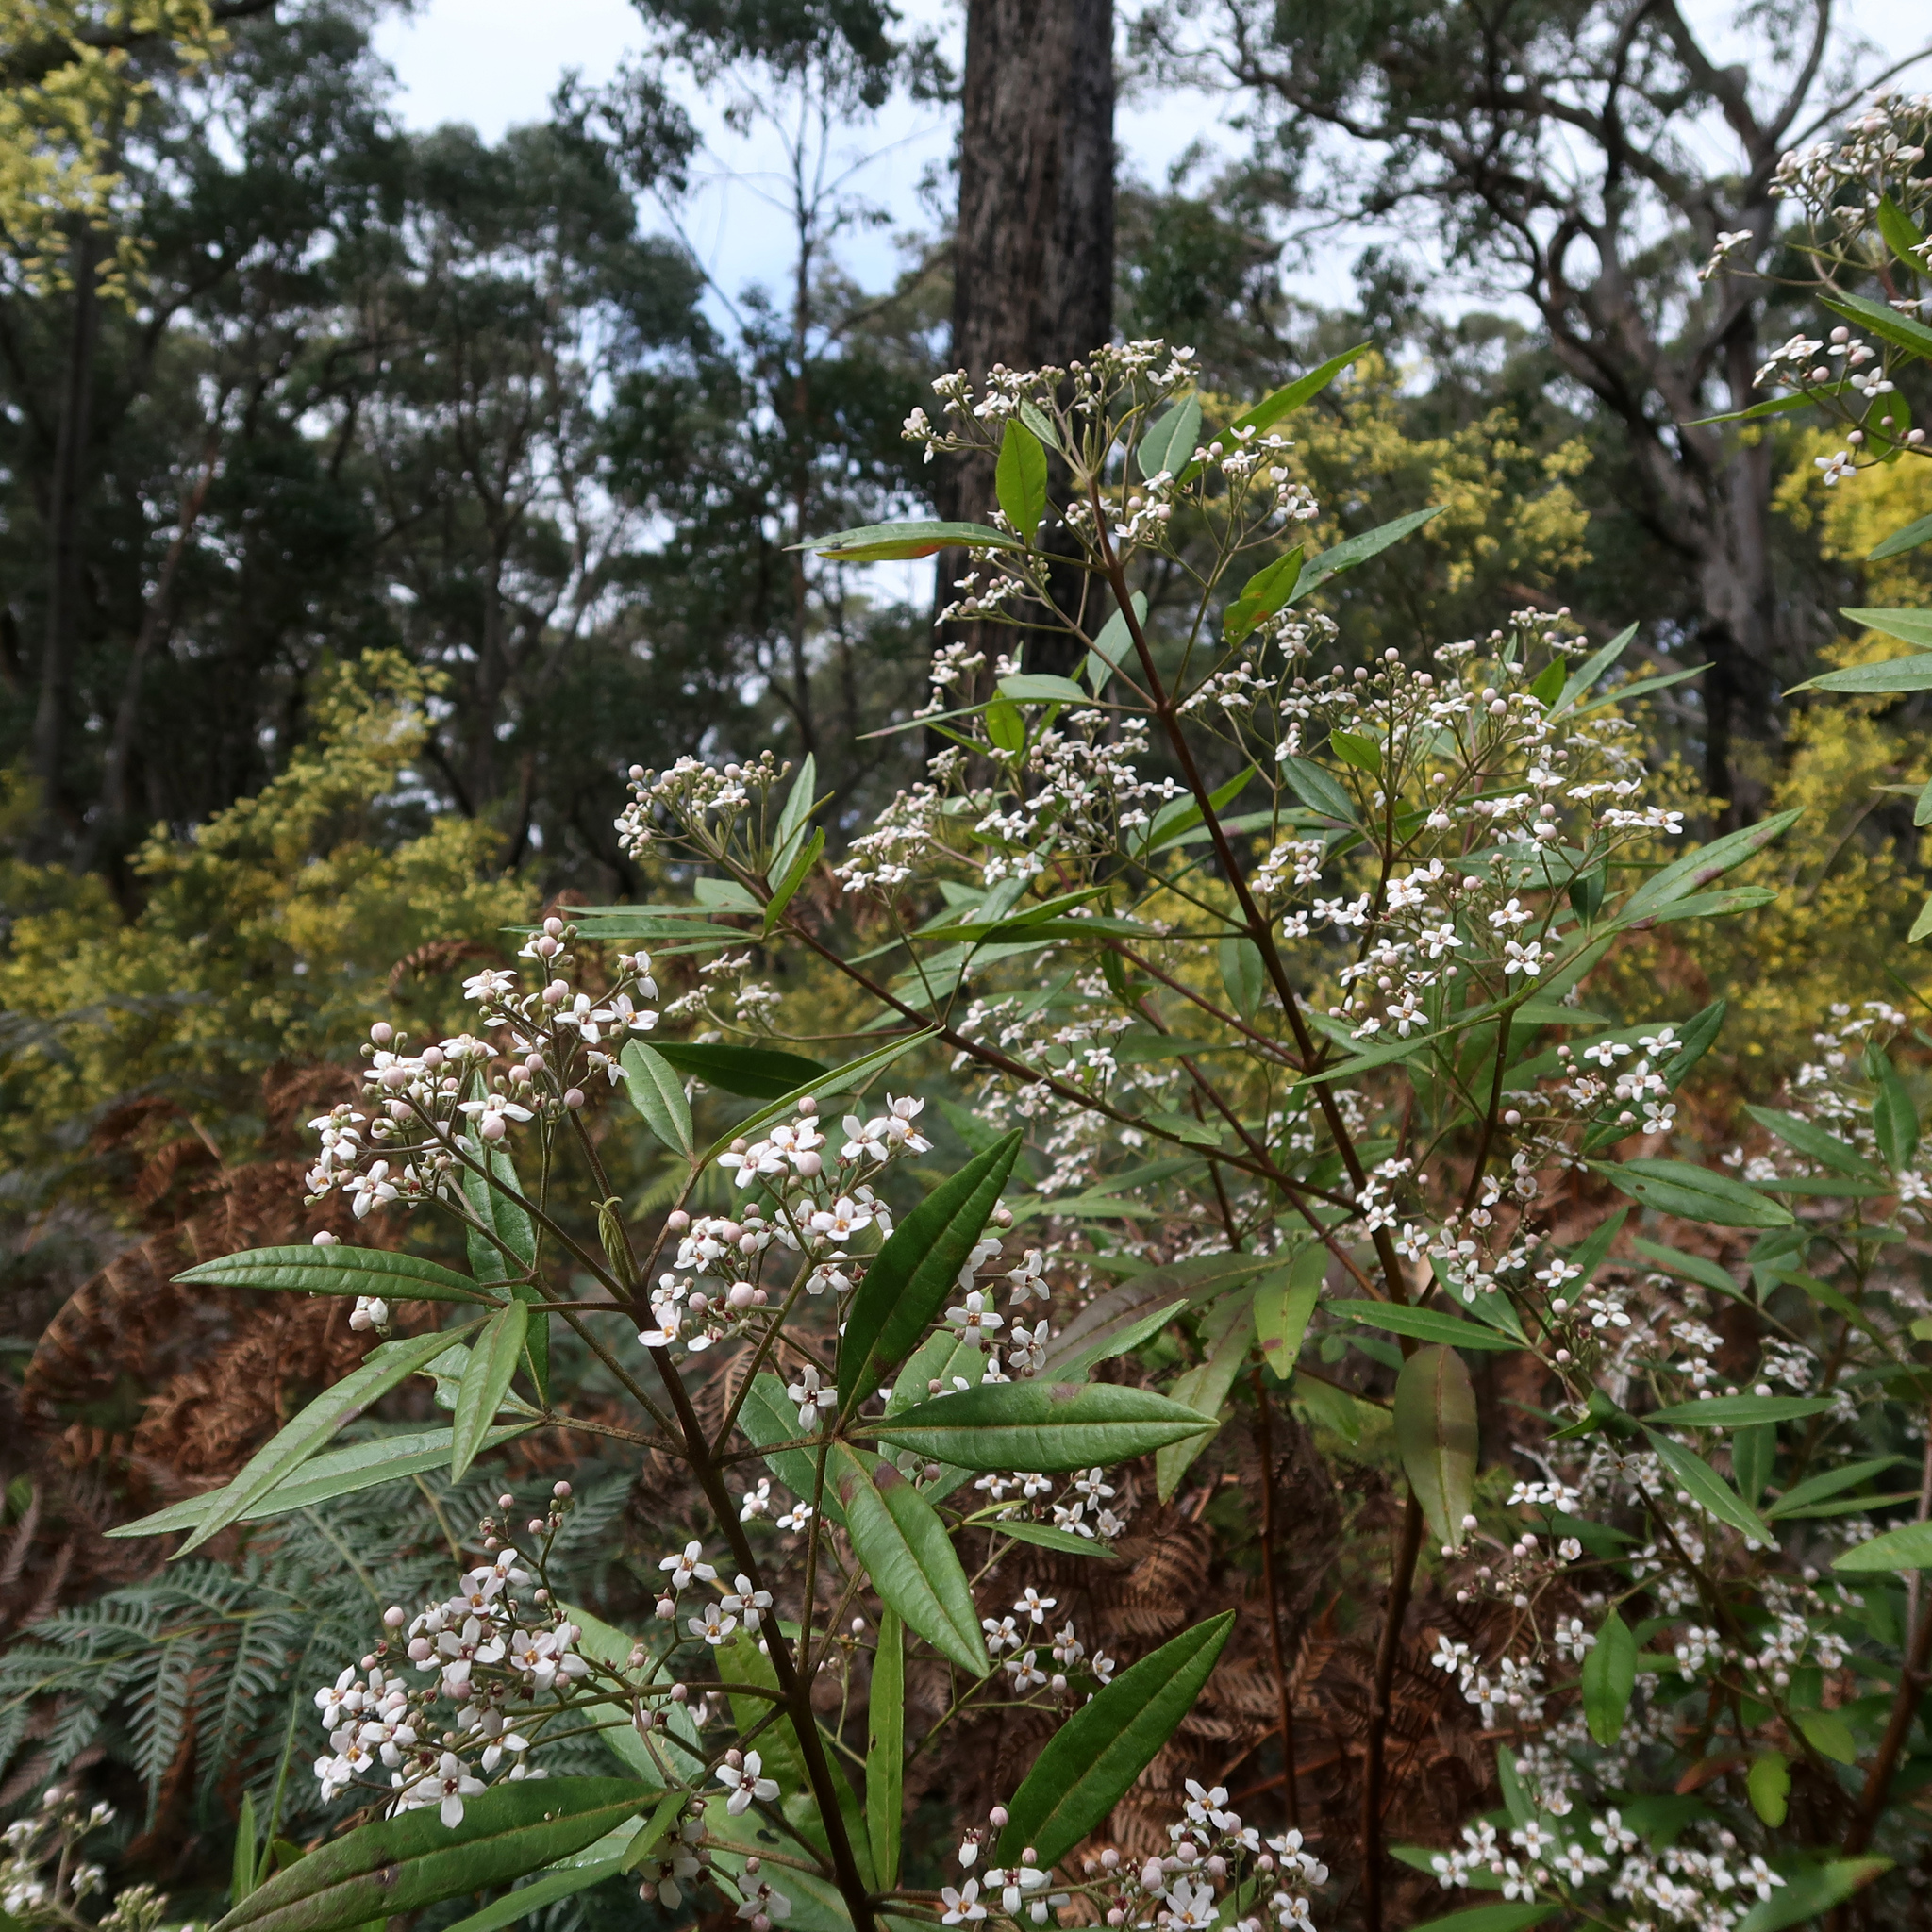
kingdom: Plantae
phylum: Tracheophyta
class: Magnoliopsida
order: Sapindales
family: Rutaceae
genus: Zieria
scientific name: Zieria arborescens
